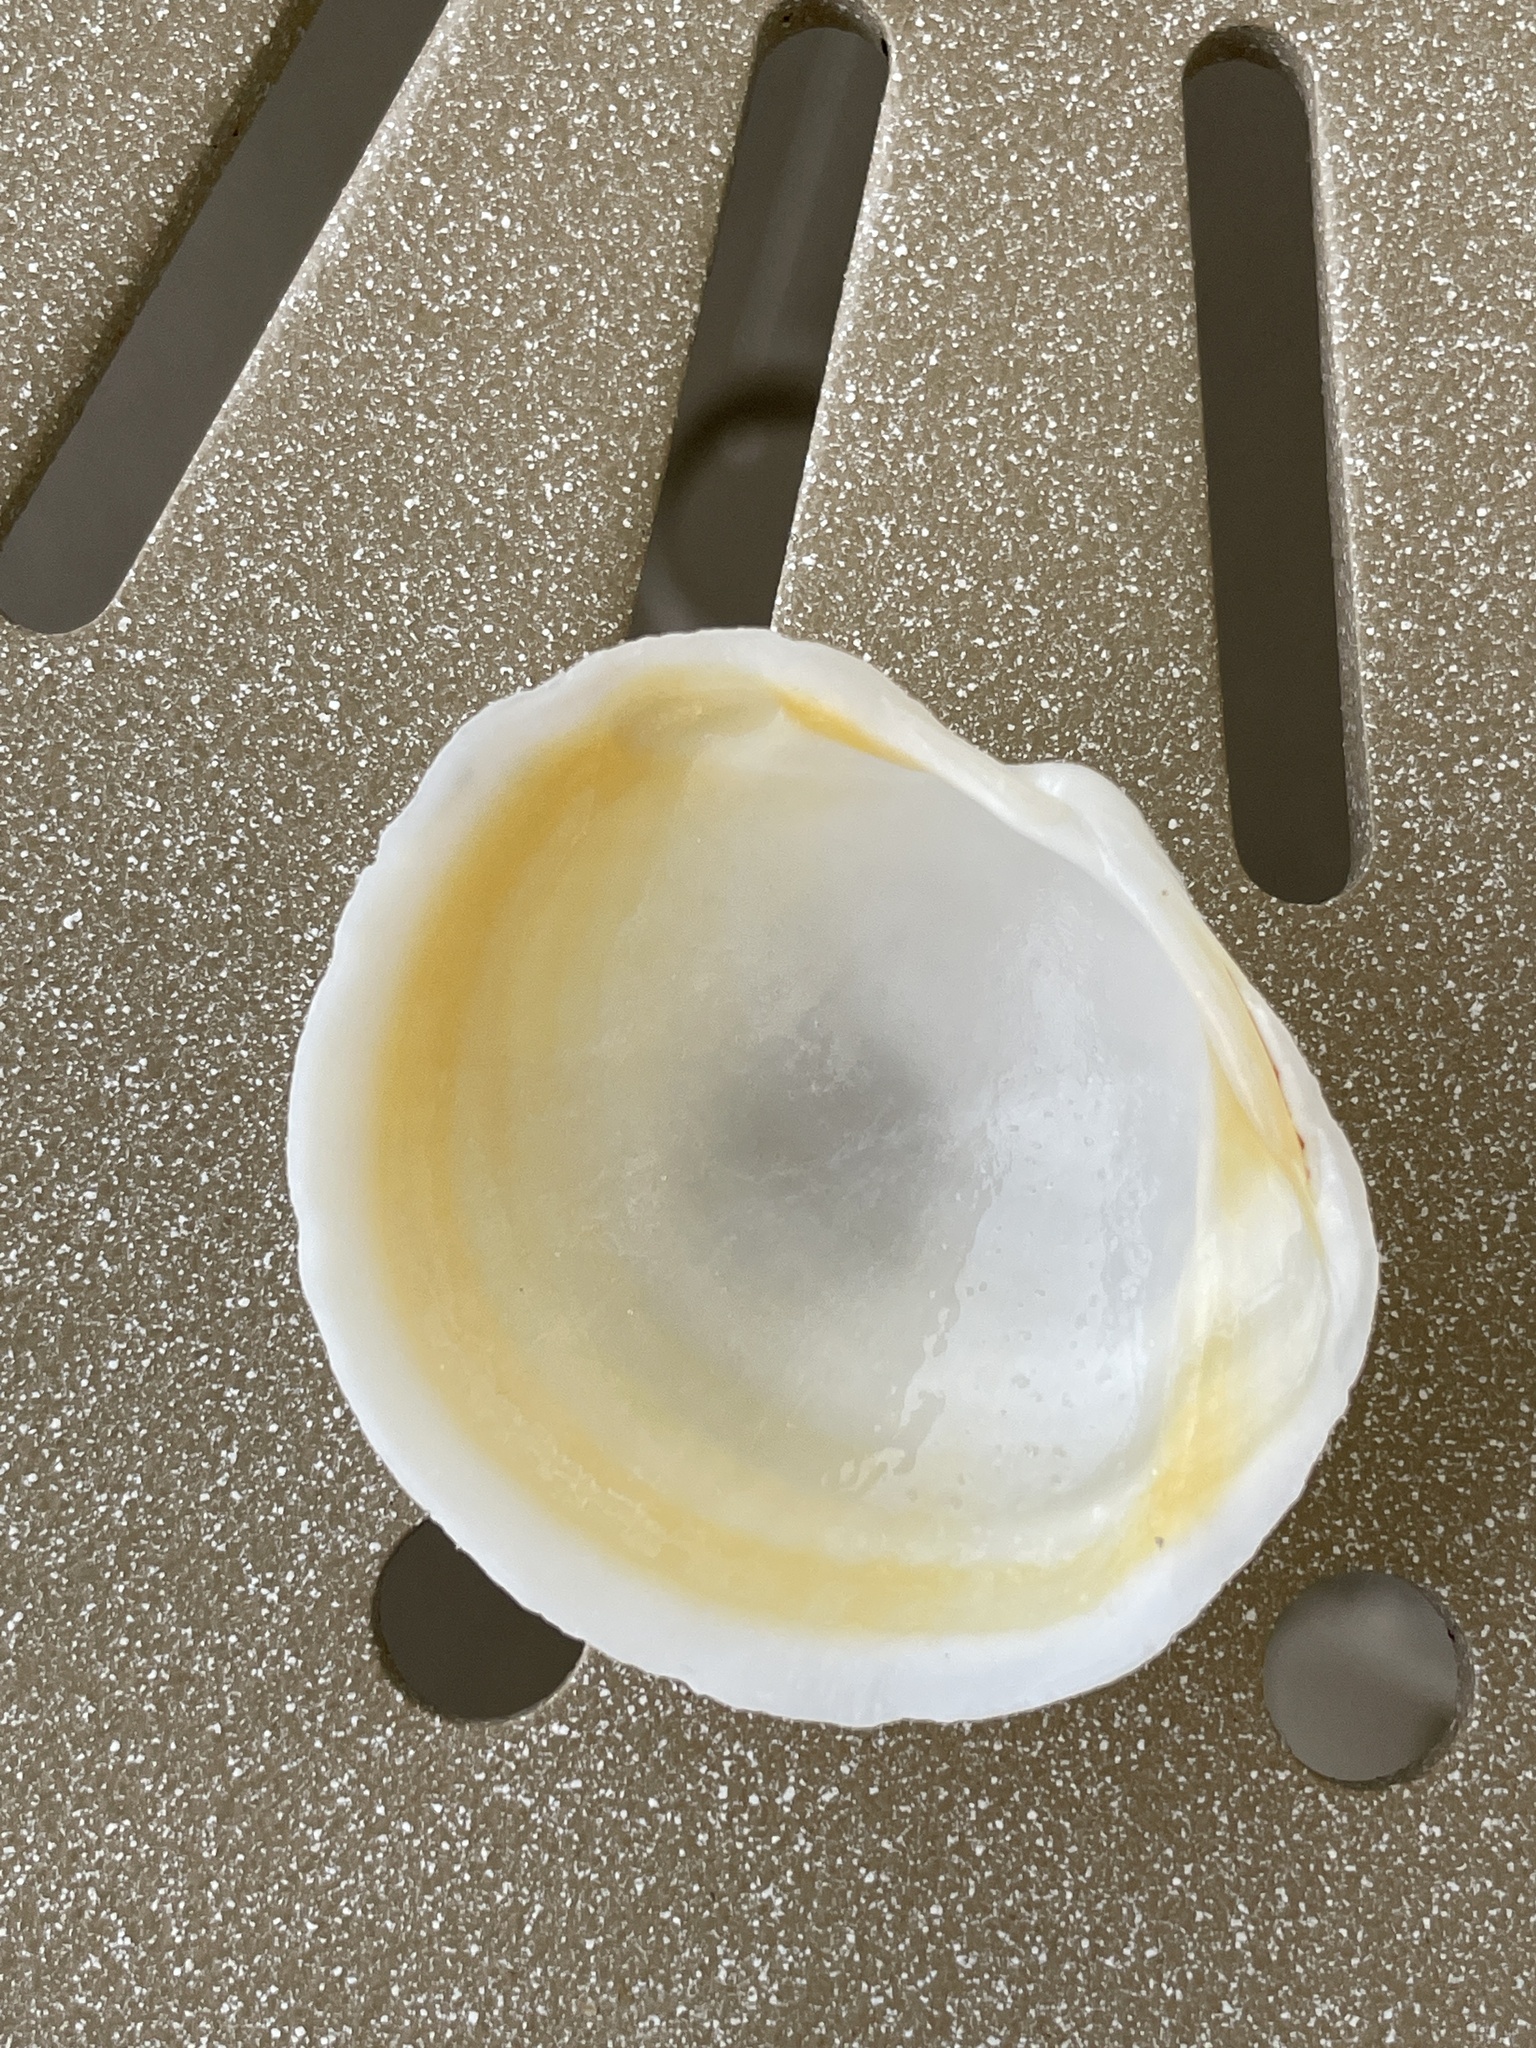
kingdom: Animalia
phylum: Mollusca
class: Bivalvia
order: Lucinida
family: Lucinidae
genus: Anodontia
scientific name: Anodontia alba
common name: Buttercup lucine
